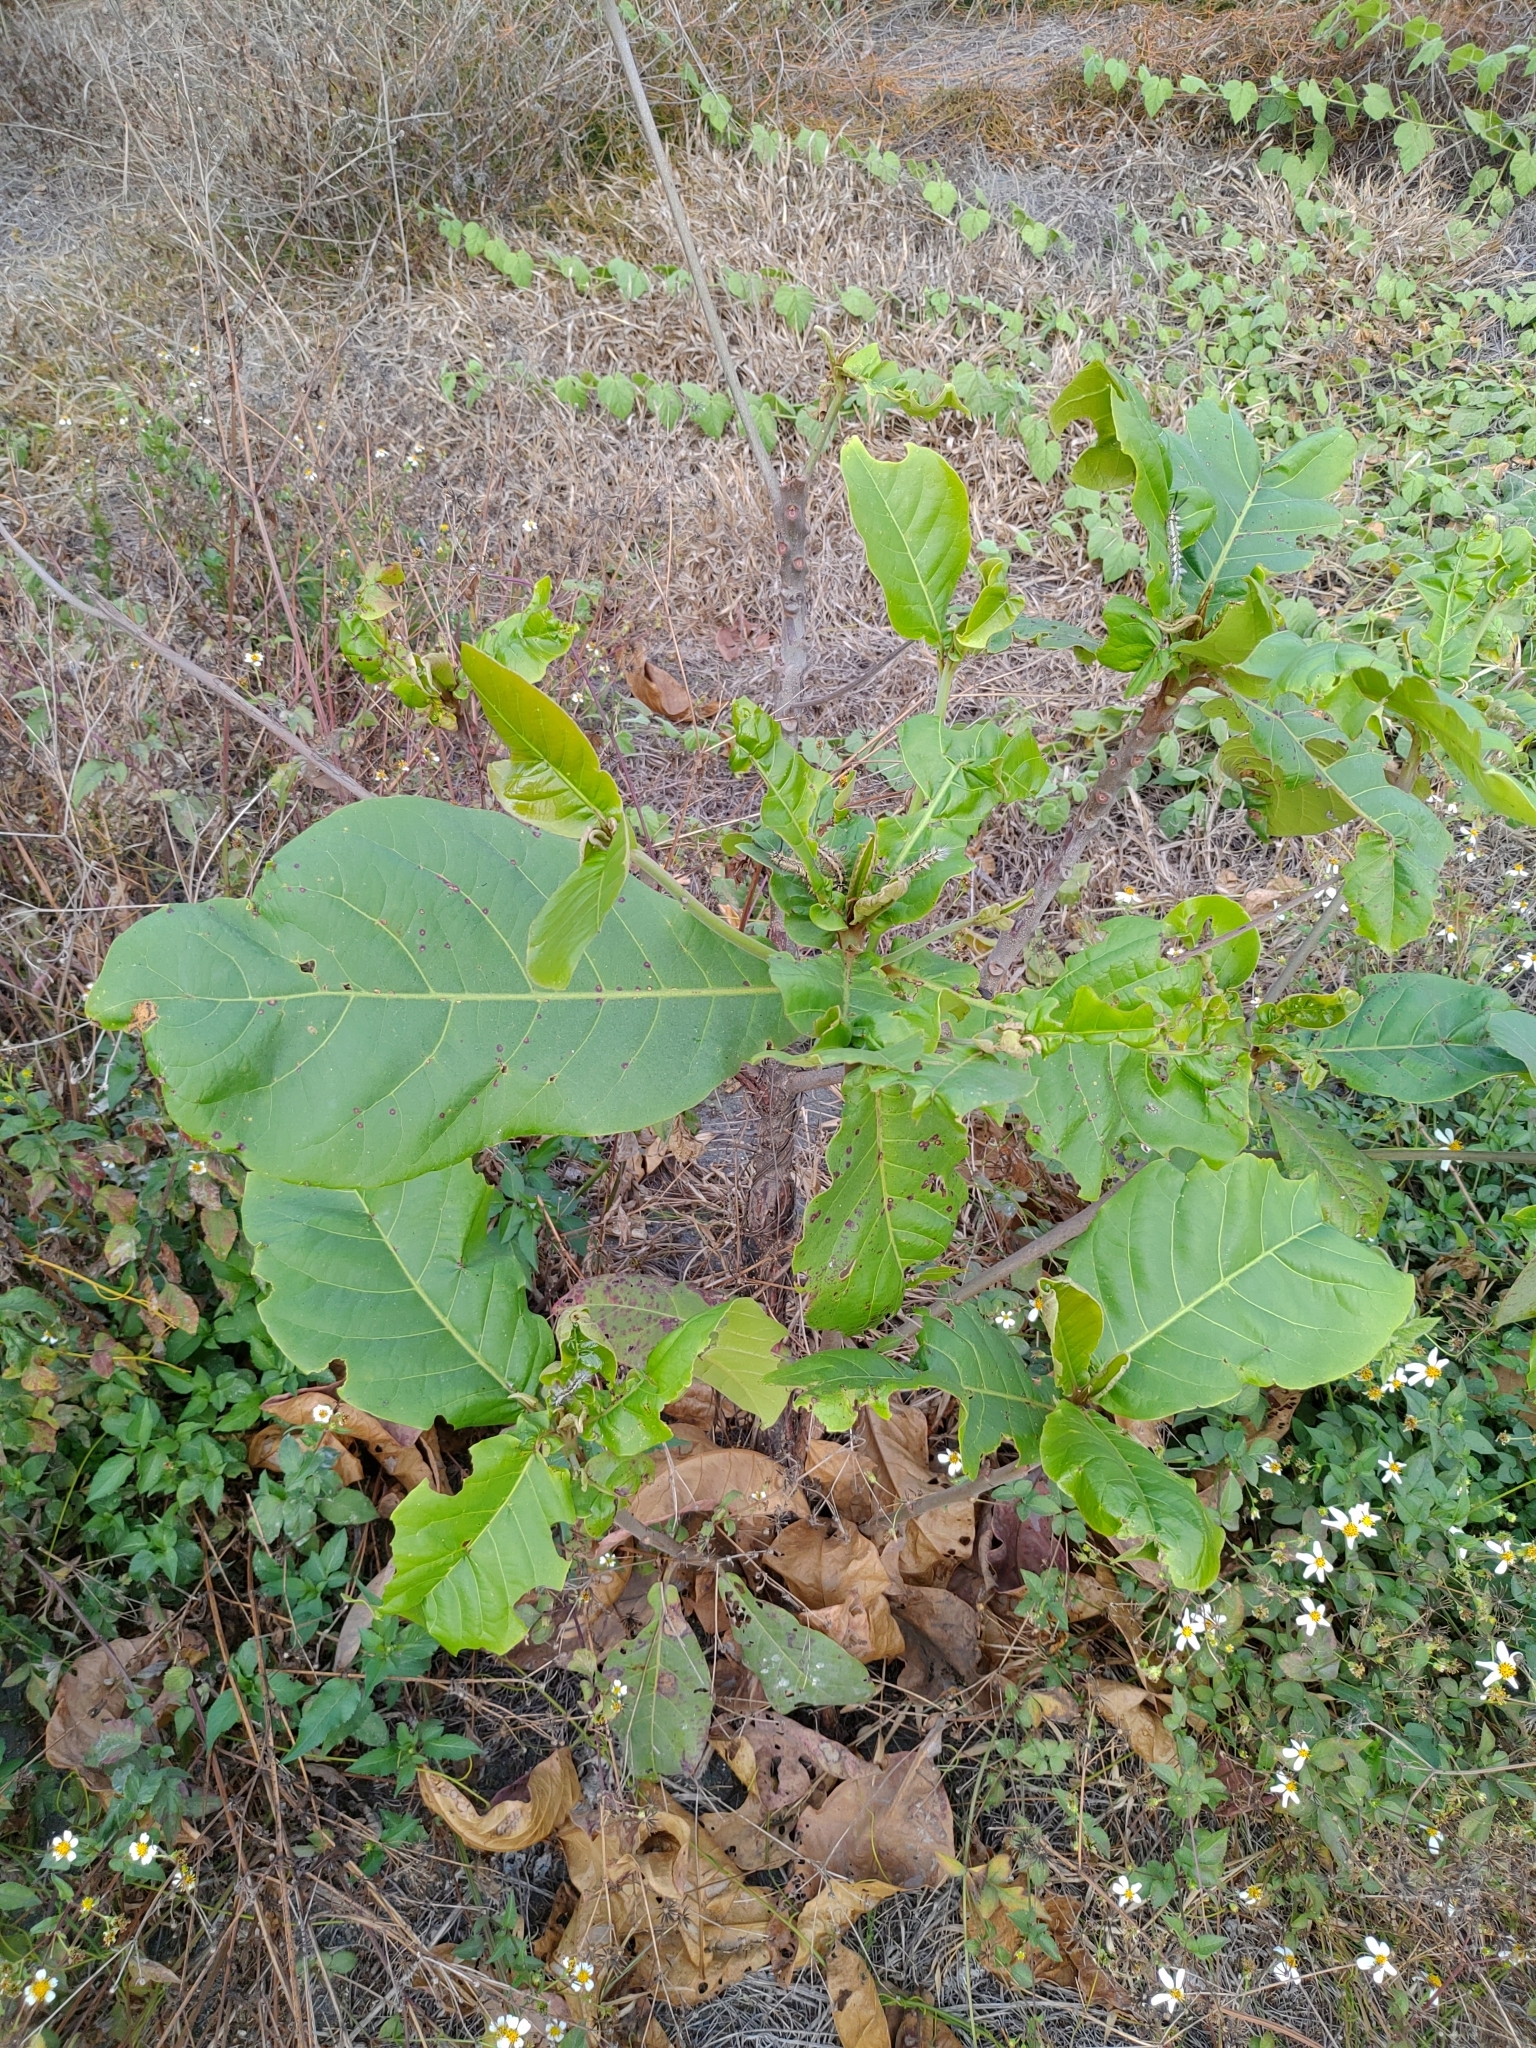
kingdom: Plantae
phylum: Tracheophyta
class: Magnoliopsida
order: Myrtales
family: Combretaceae
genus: Terminalia
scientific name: Terminalia catappa
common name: Tropical almond
